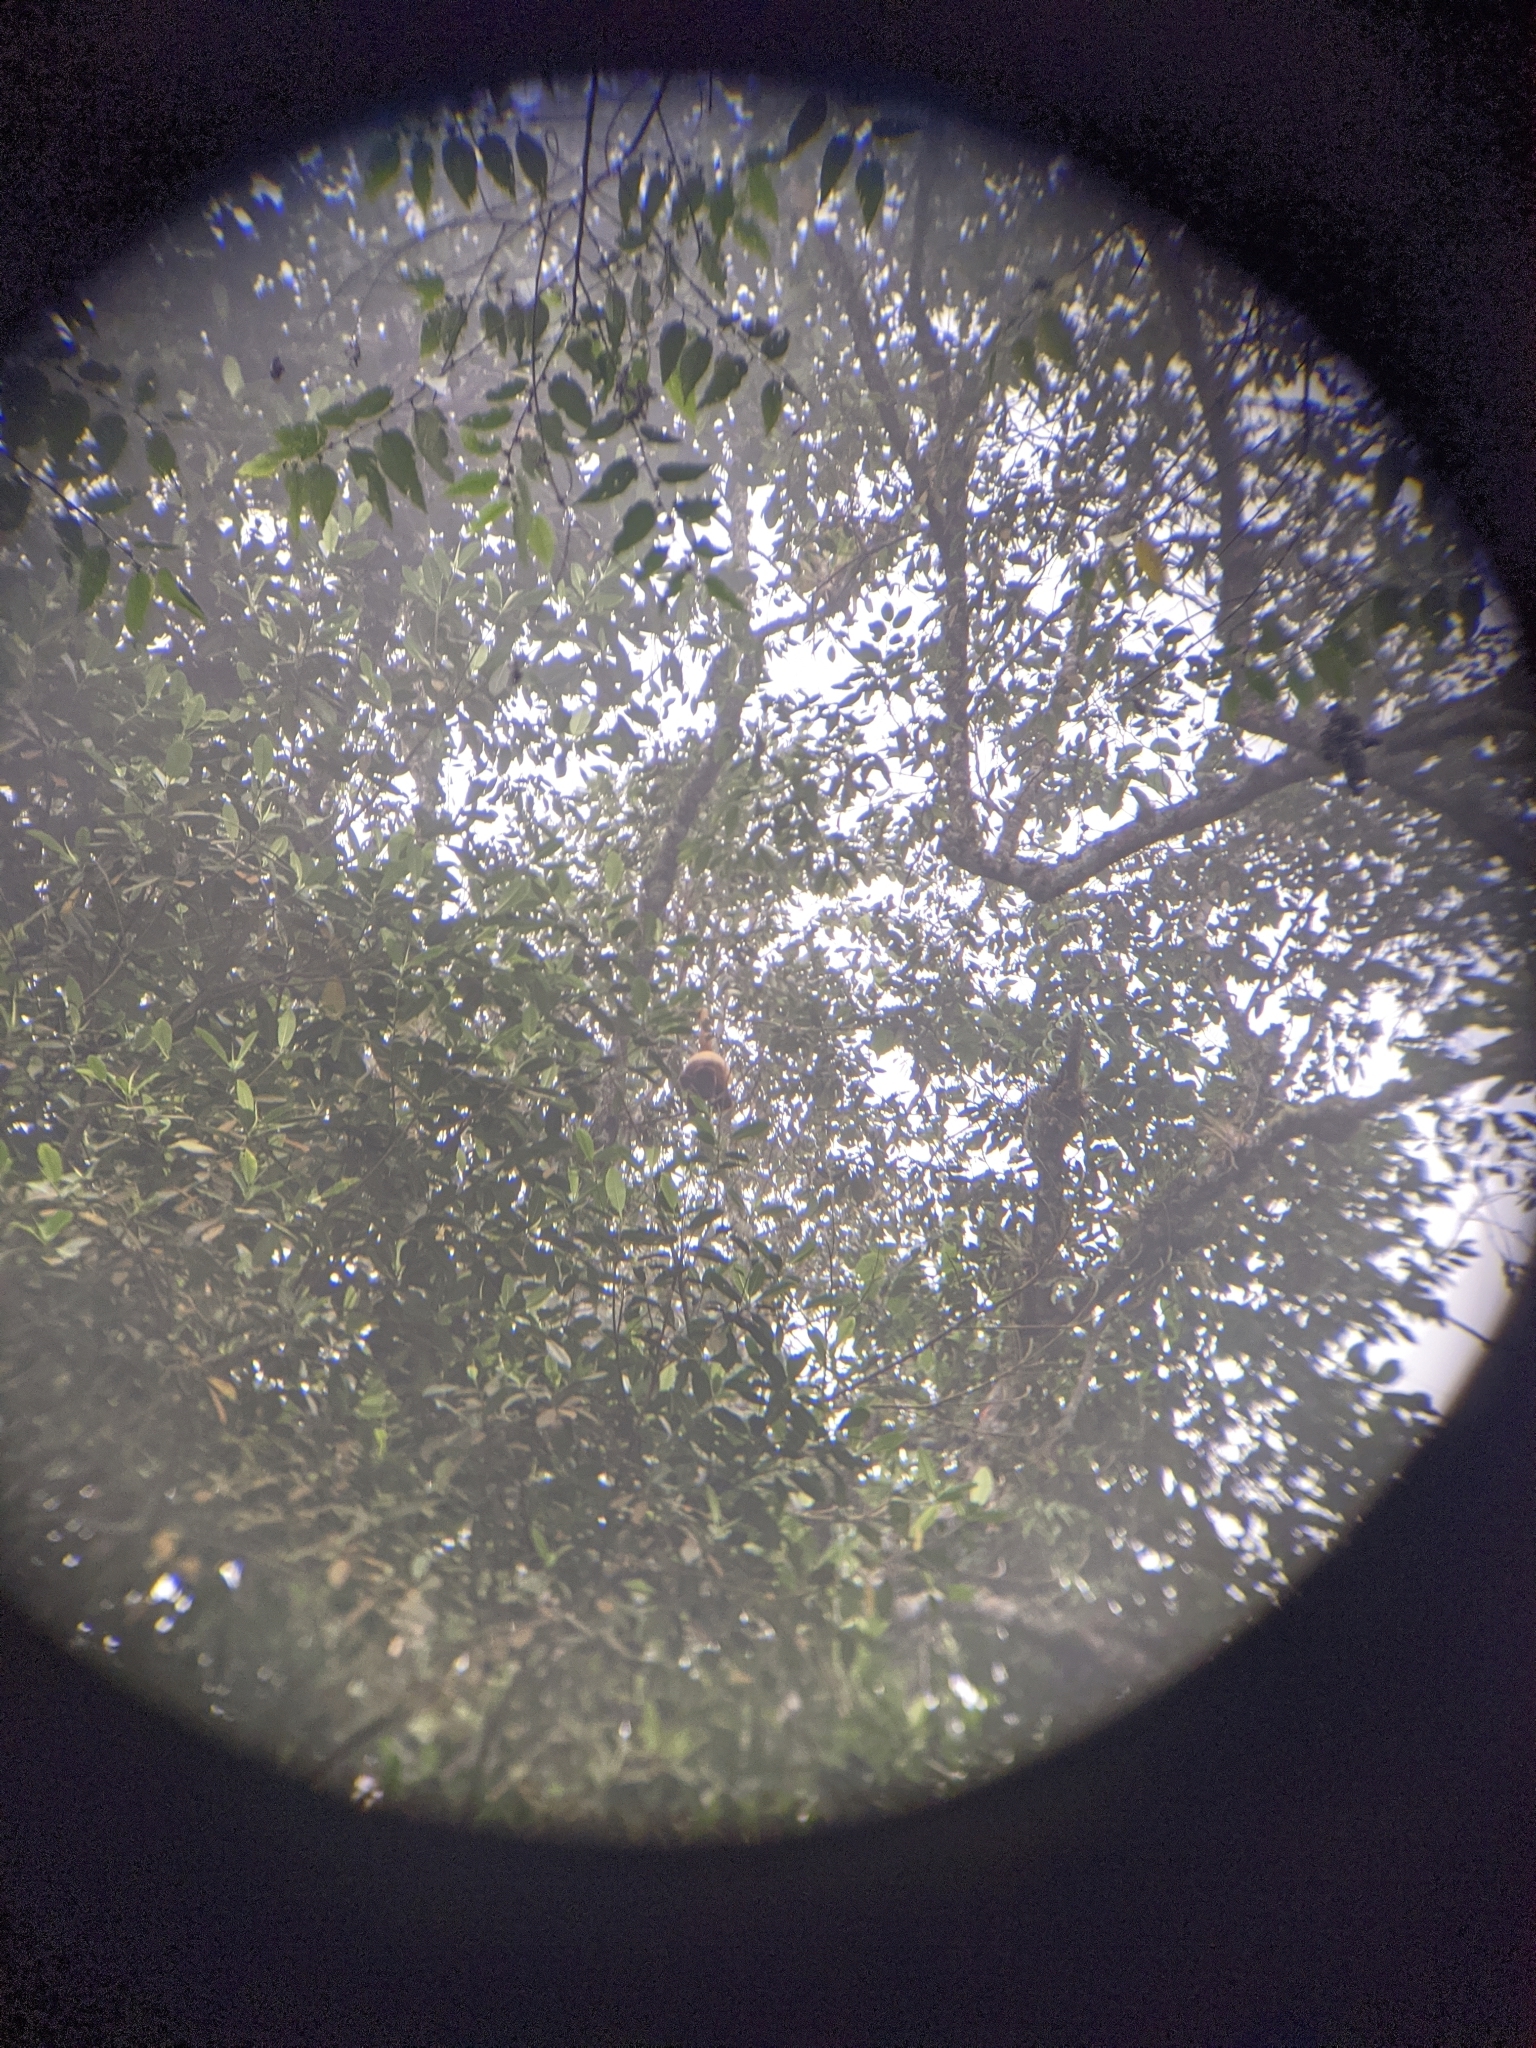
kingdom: Animalia
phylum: Chordata
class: Mammalia
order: Primates
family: Atelidae
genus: Alouatta
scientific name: Alouatta seniculus
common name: Venezuelan red howler
